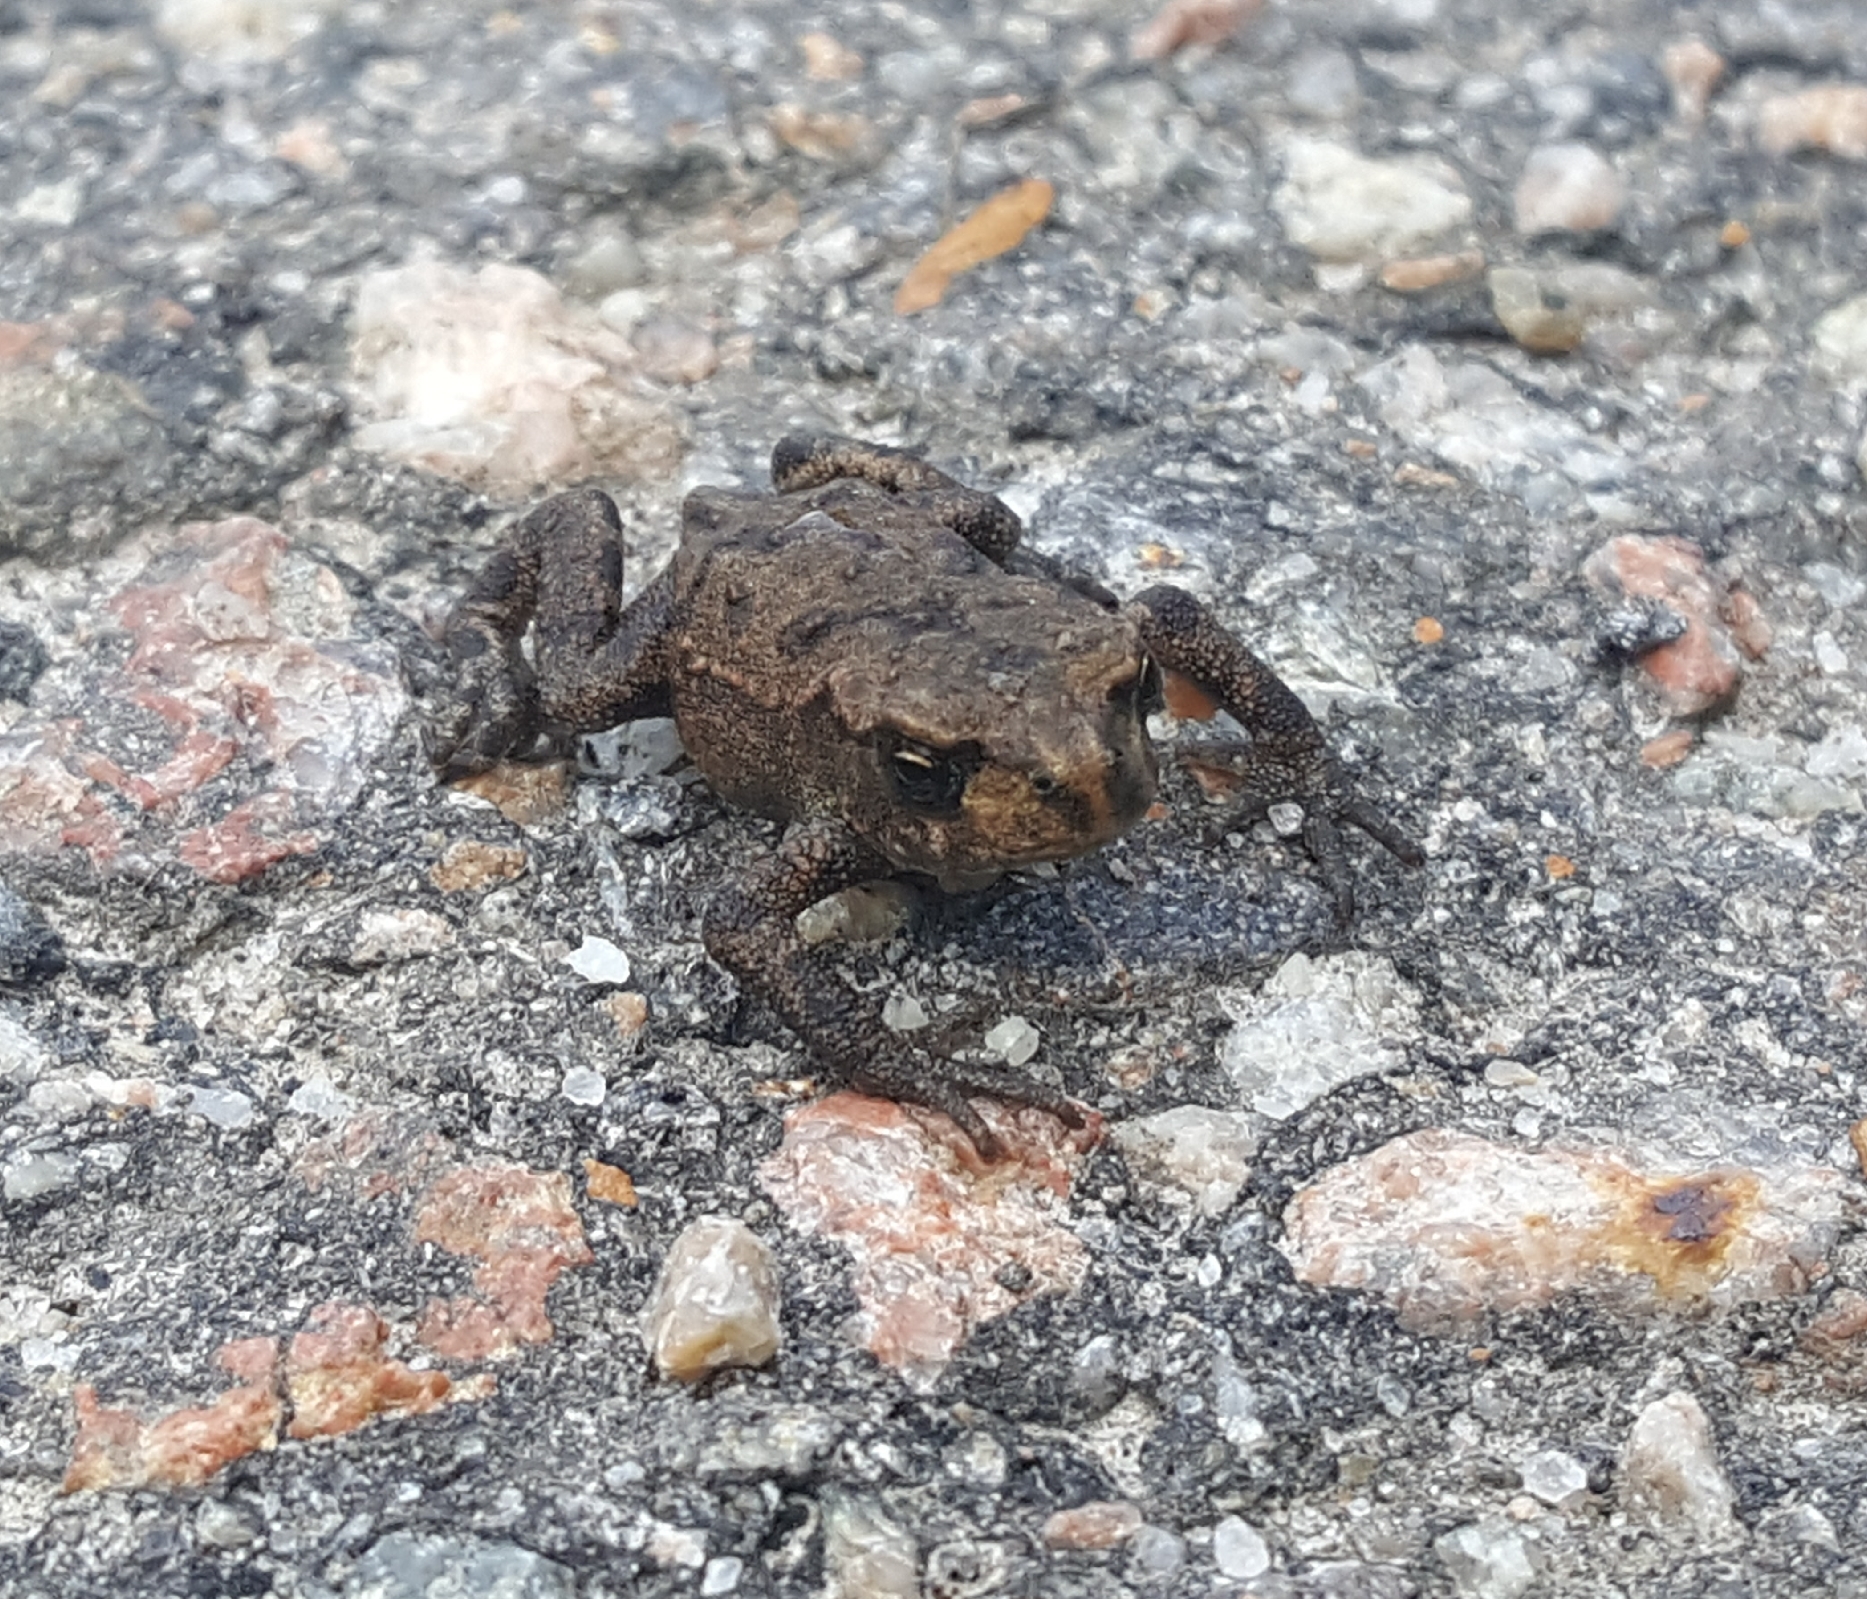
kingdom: Animalia
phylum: Chordata
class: Amphibia
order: Anura
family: Bufonidae
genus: Bufo
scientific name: Bufo bufo
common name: Common toad
